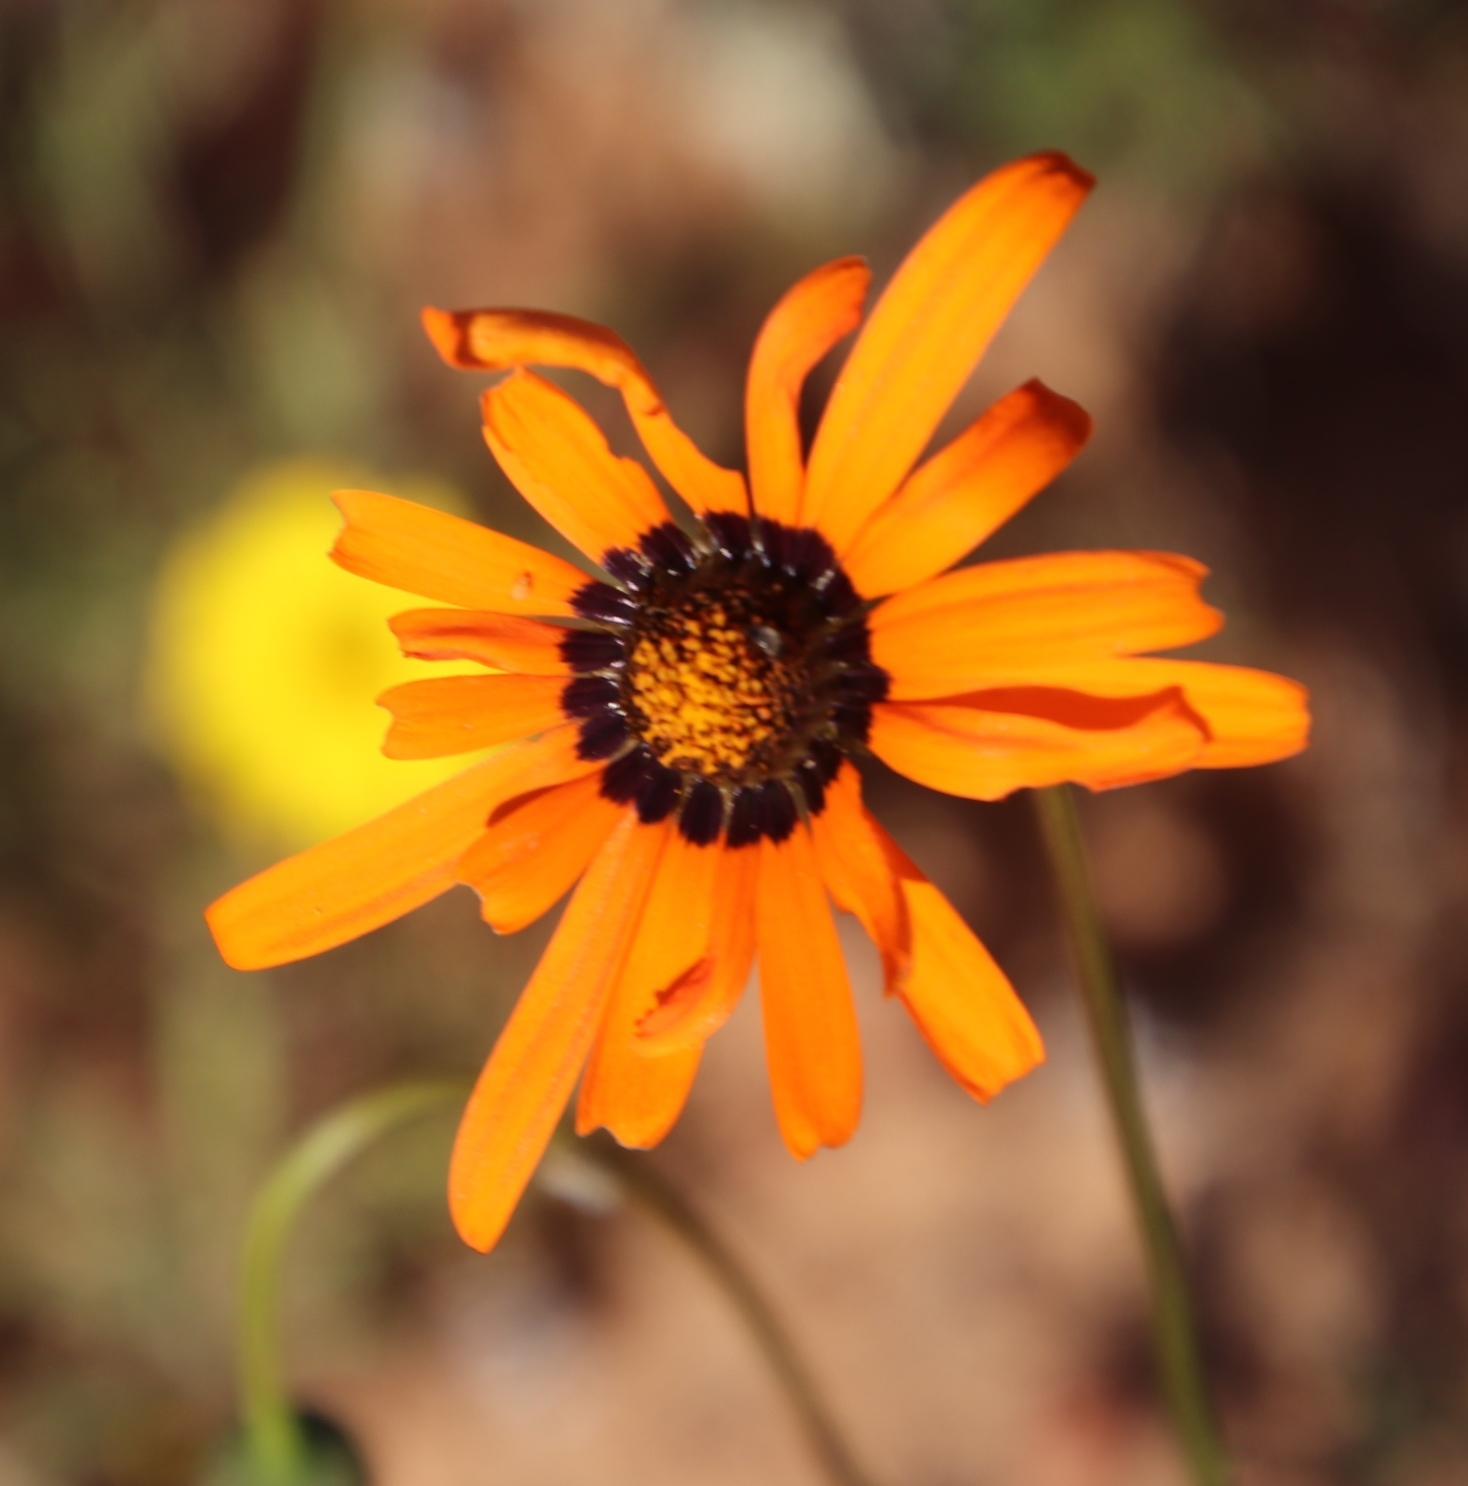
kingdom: Plantae
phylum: Tracheophyta
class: Magnoliopsida
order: Asterales
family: Asteraceae
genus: Ursinia
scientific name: Ursinia anthemoides
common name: Ursinia
